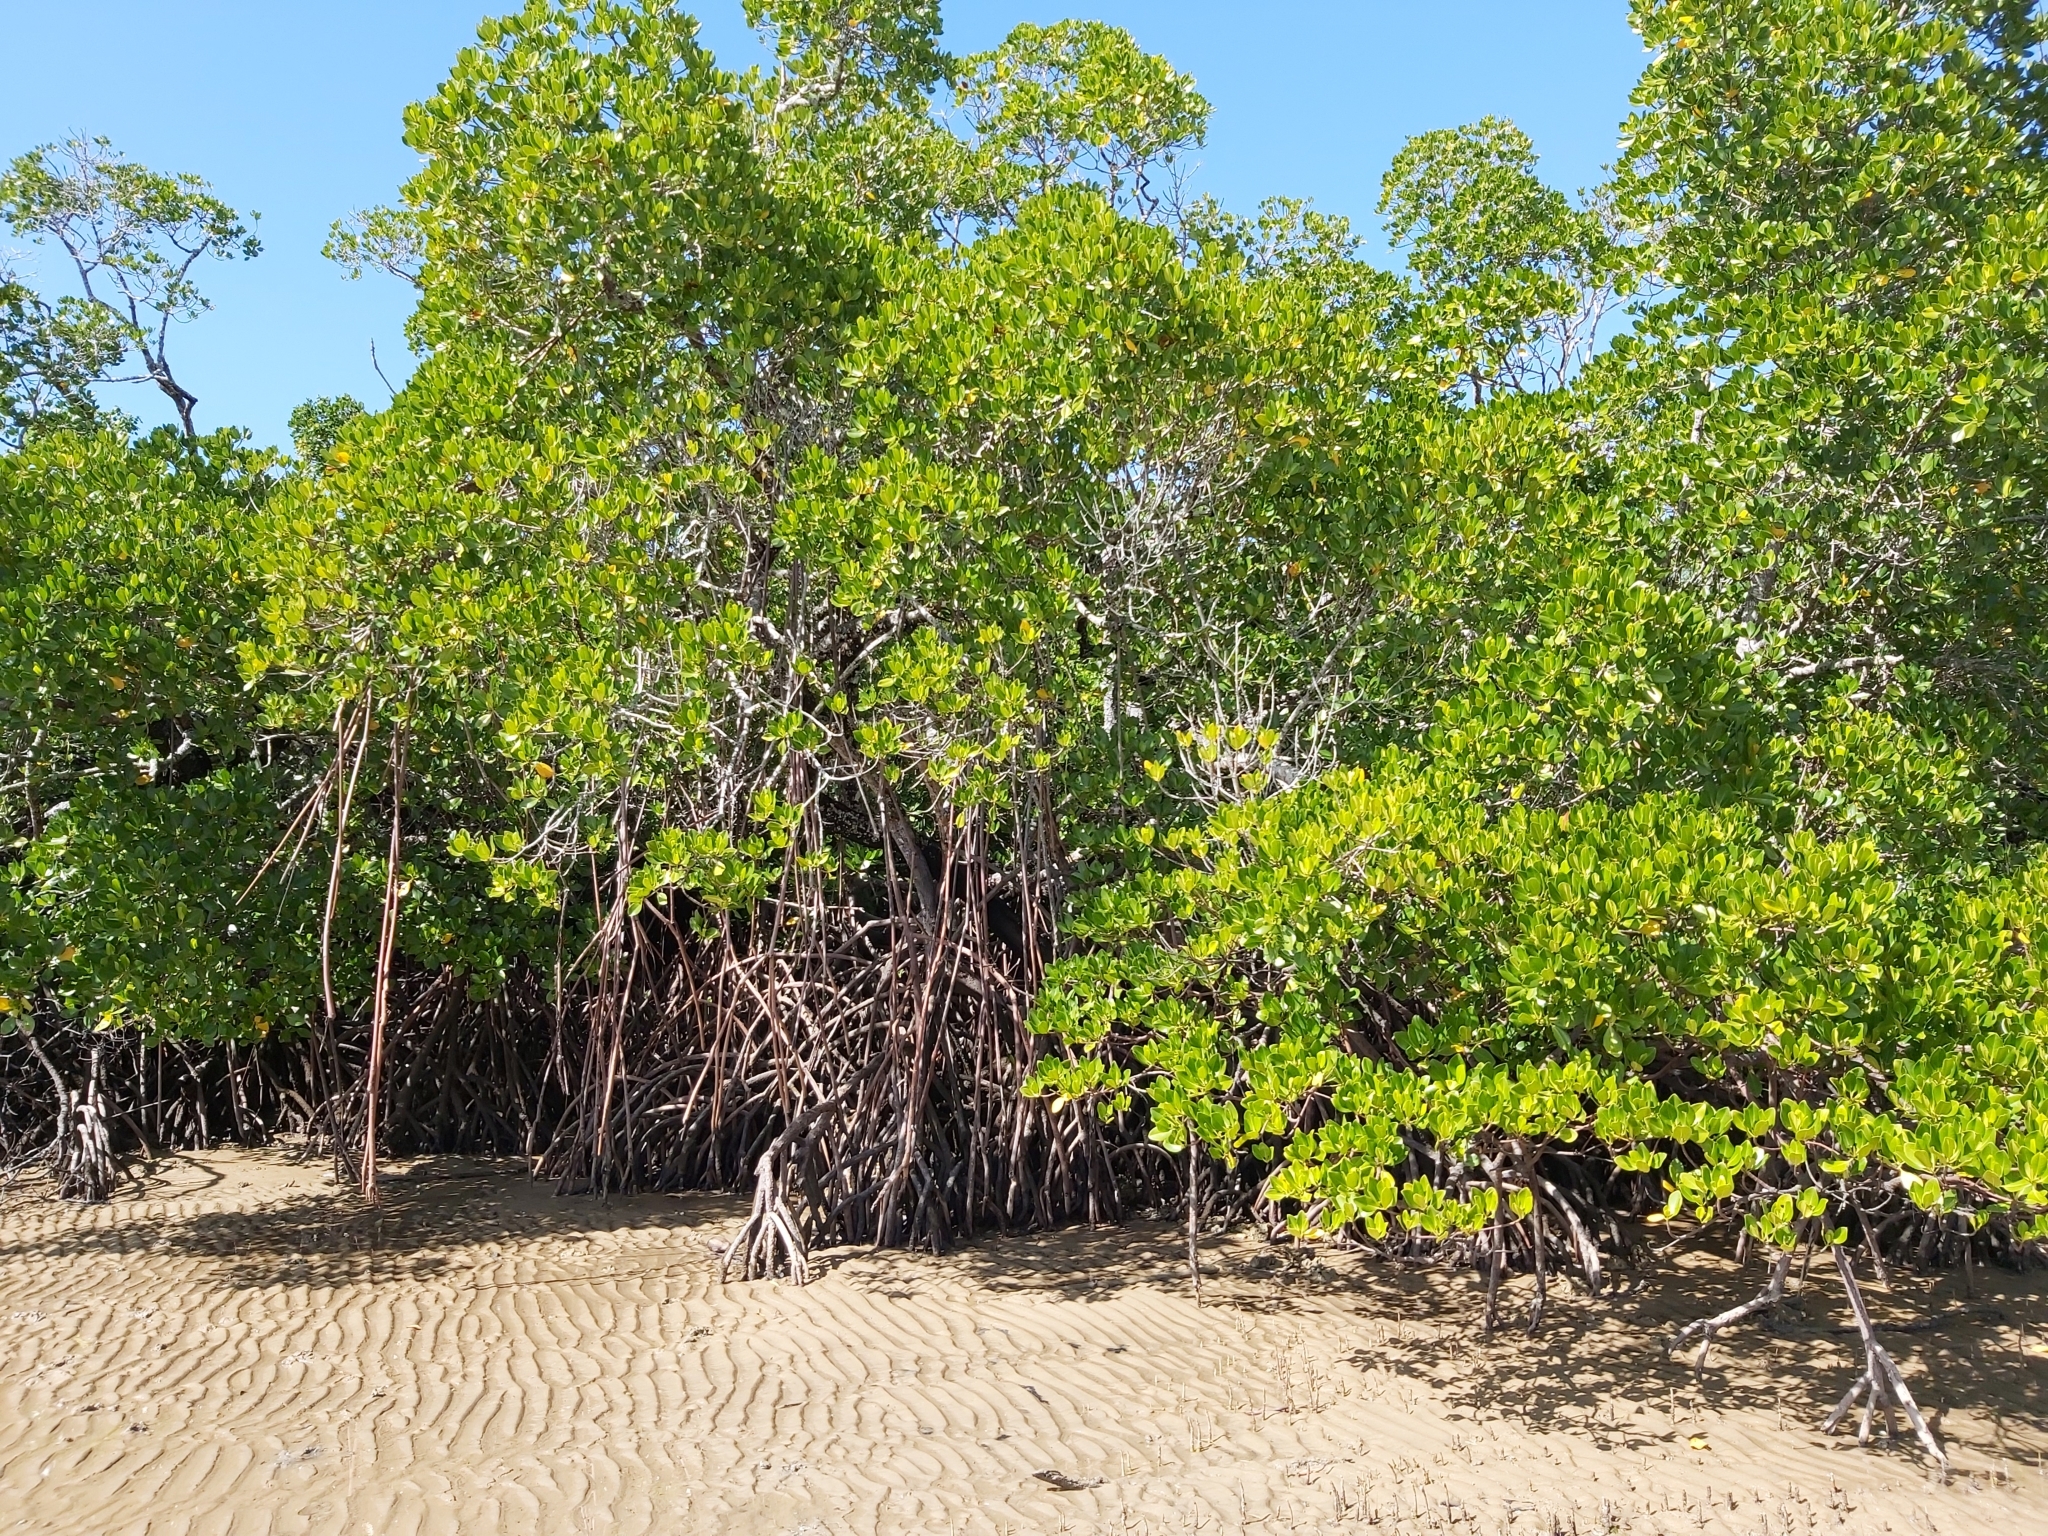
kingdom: Plantae
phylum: Tracheophyta
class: Magnoliopsida
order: Malpighiales
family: Rhizophoraceae
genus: Rhizophora
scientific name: Rhizophora stylosa
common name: Red mangrove
